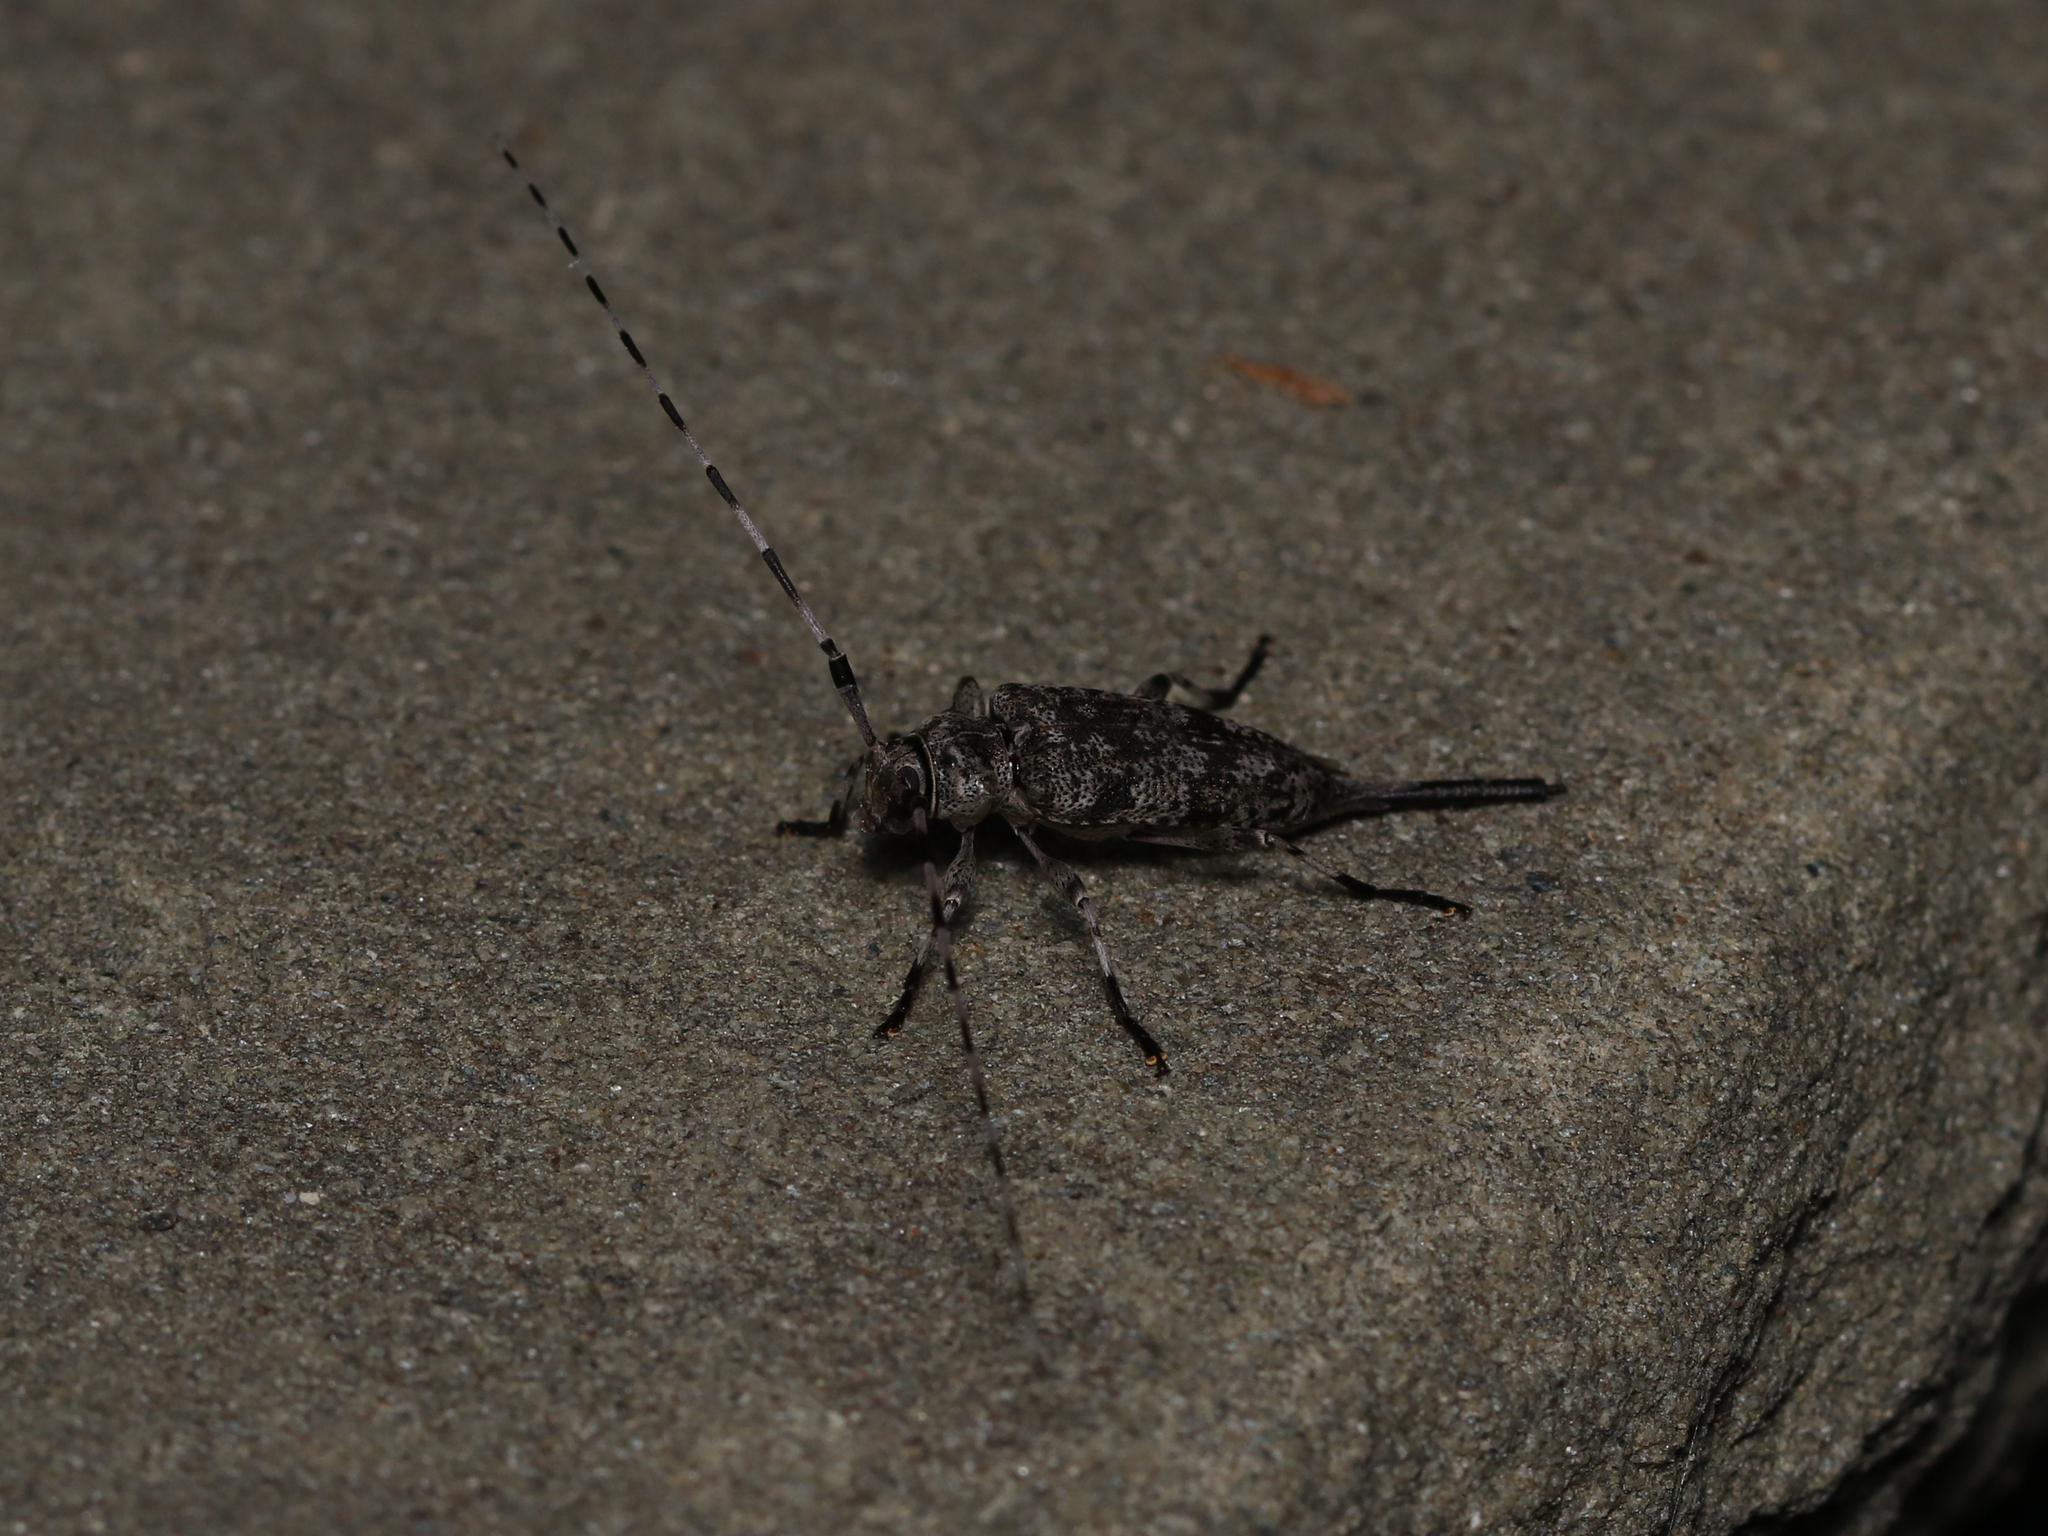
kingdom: Animalia
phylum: Arthropoda
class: Insecta
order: Coleoptera
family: Cerambycidae
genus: Acanthocinus
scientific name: Acanthocinus obsoletus
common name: Roundheaded borer
